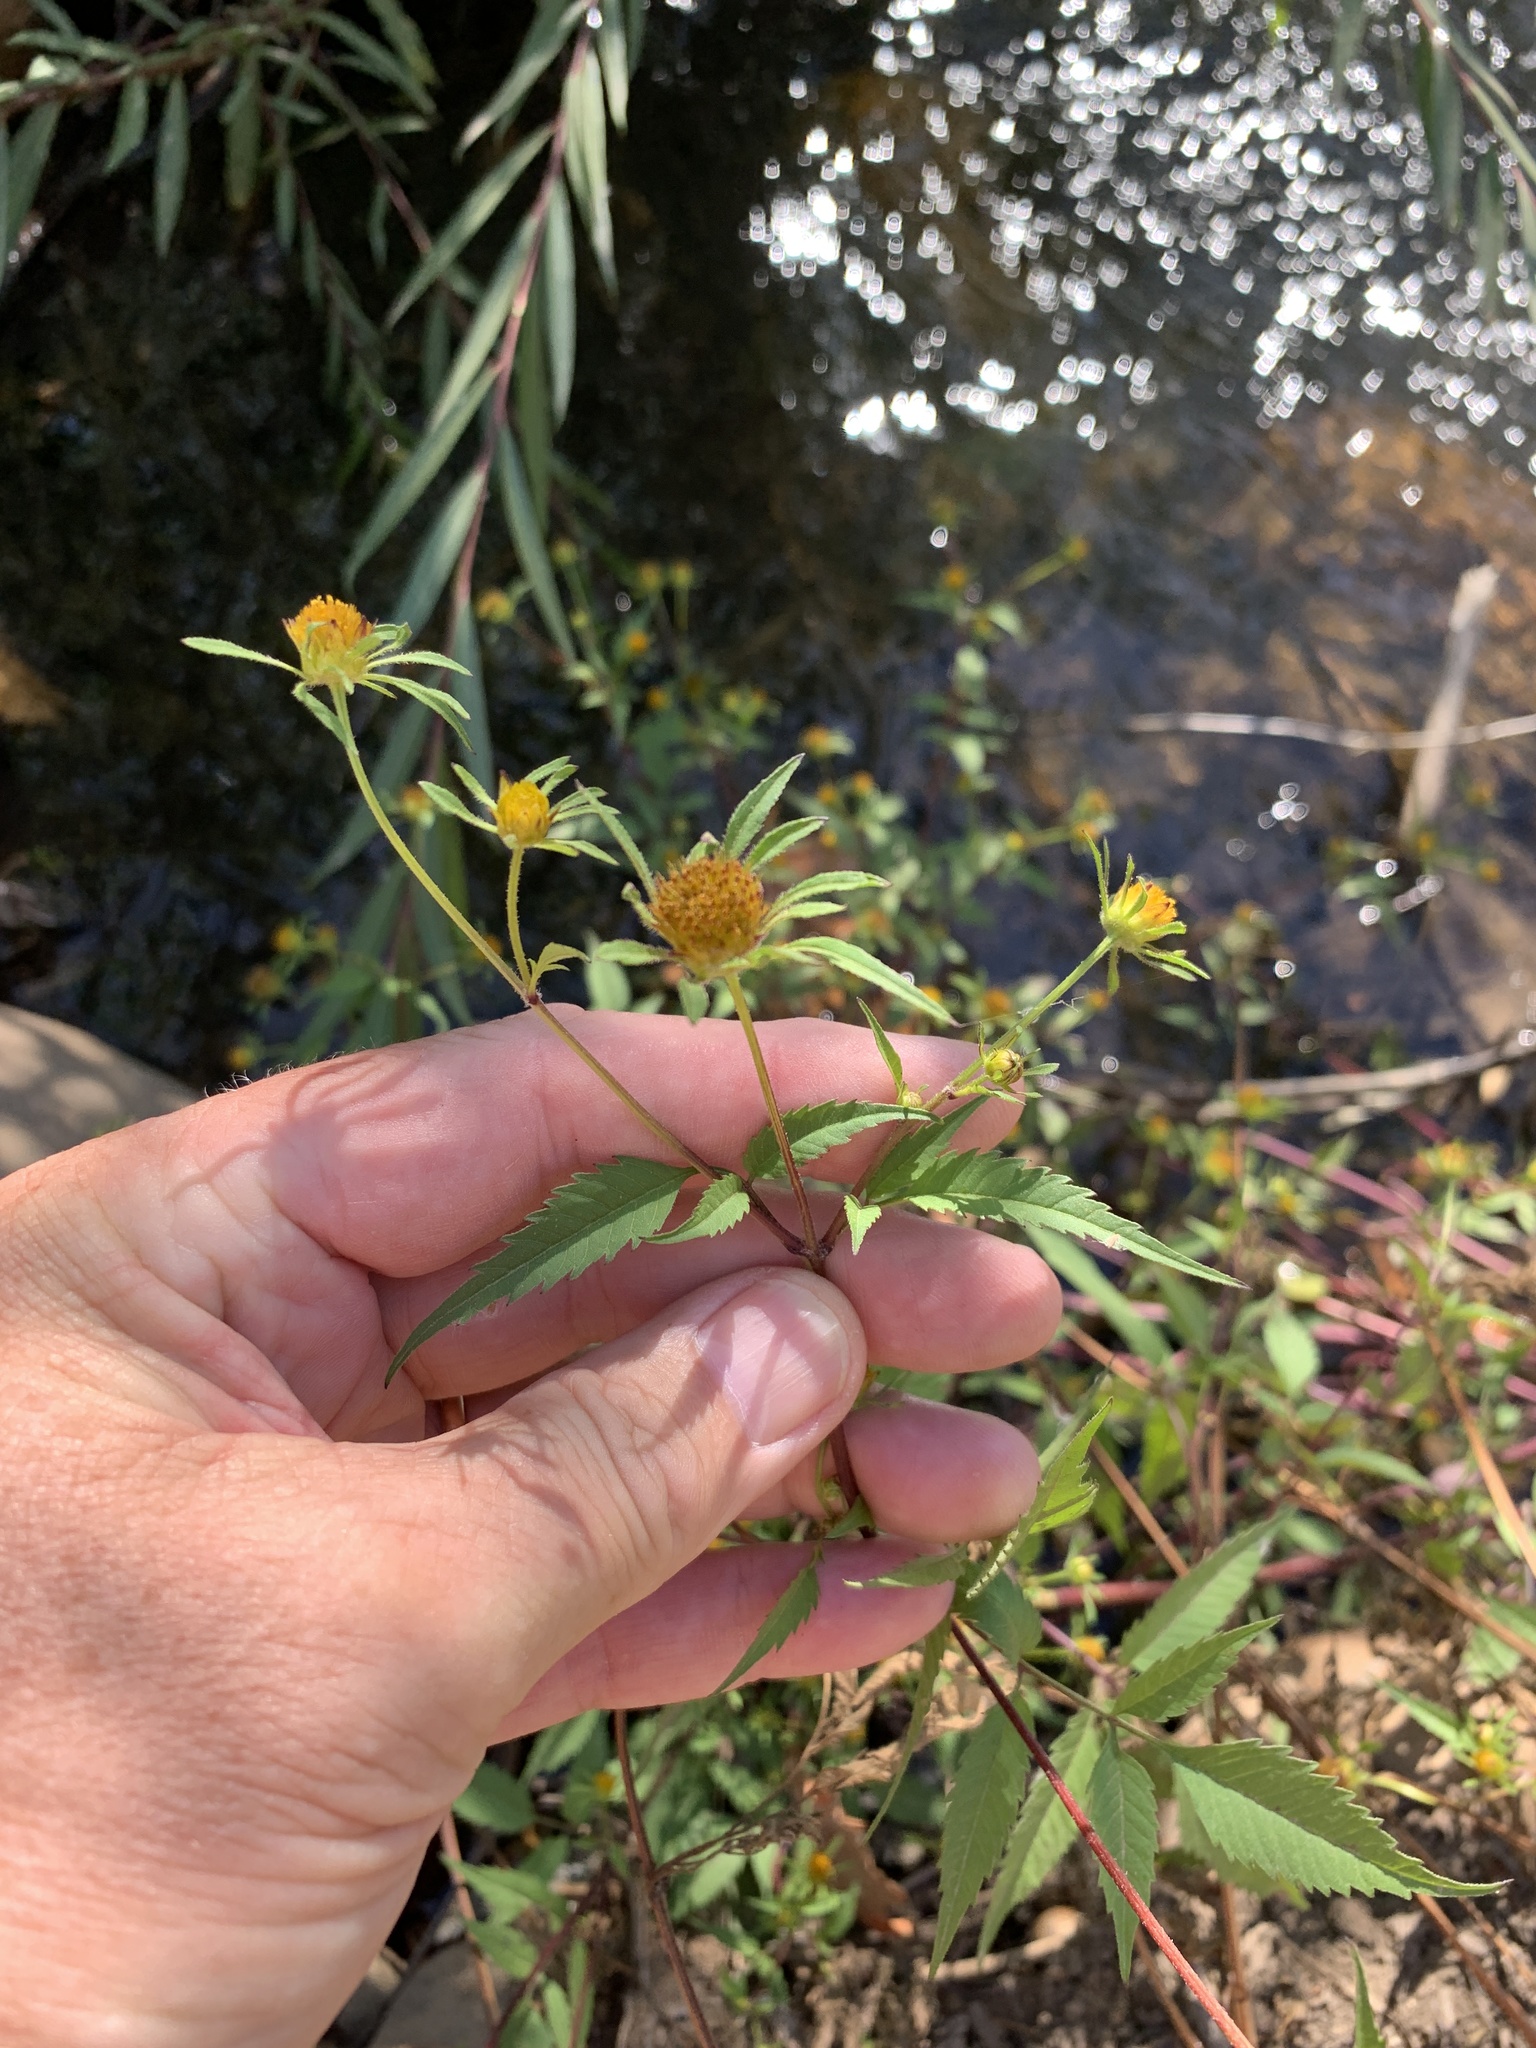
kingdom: Plantae
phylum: Tracheophyta
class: Magnoliopsida
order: Asterales
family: Asteraceae
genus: Bidens
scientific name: Bidens frondosa
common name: Beggarticks
